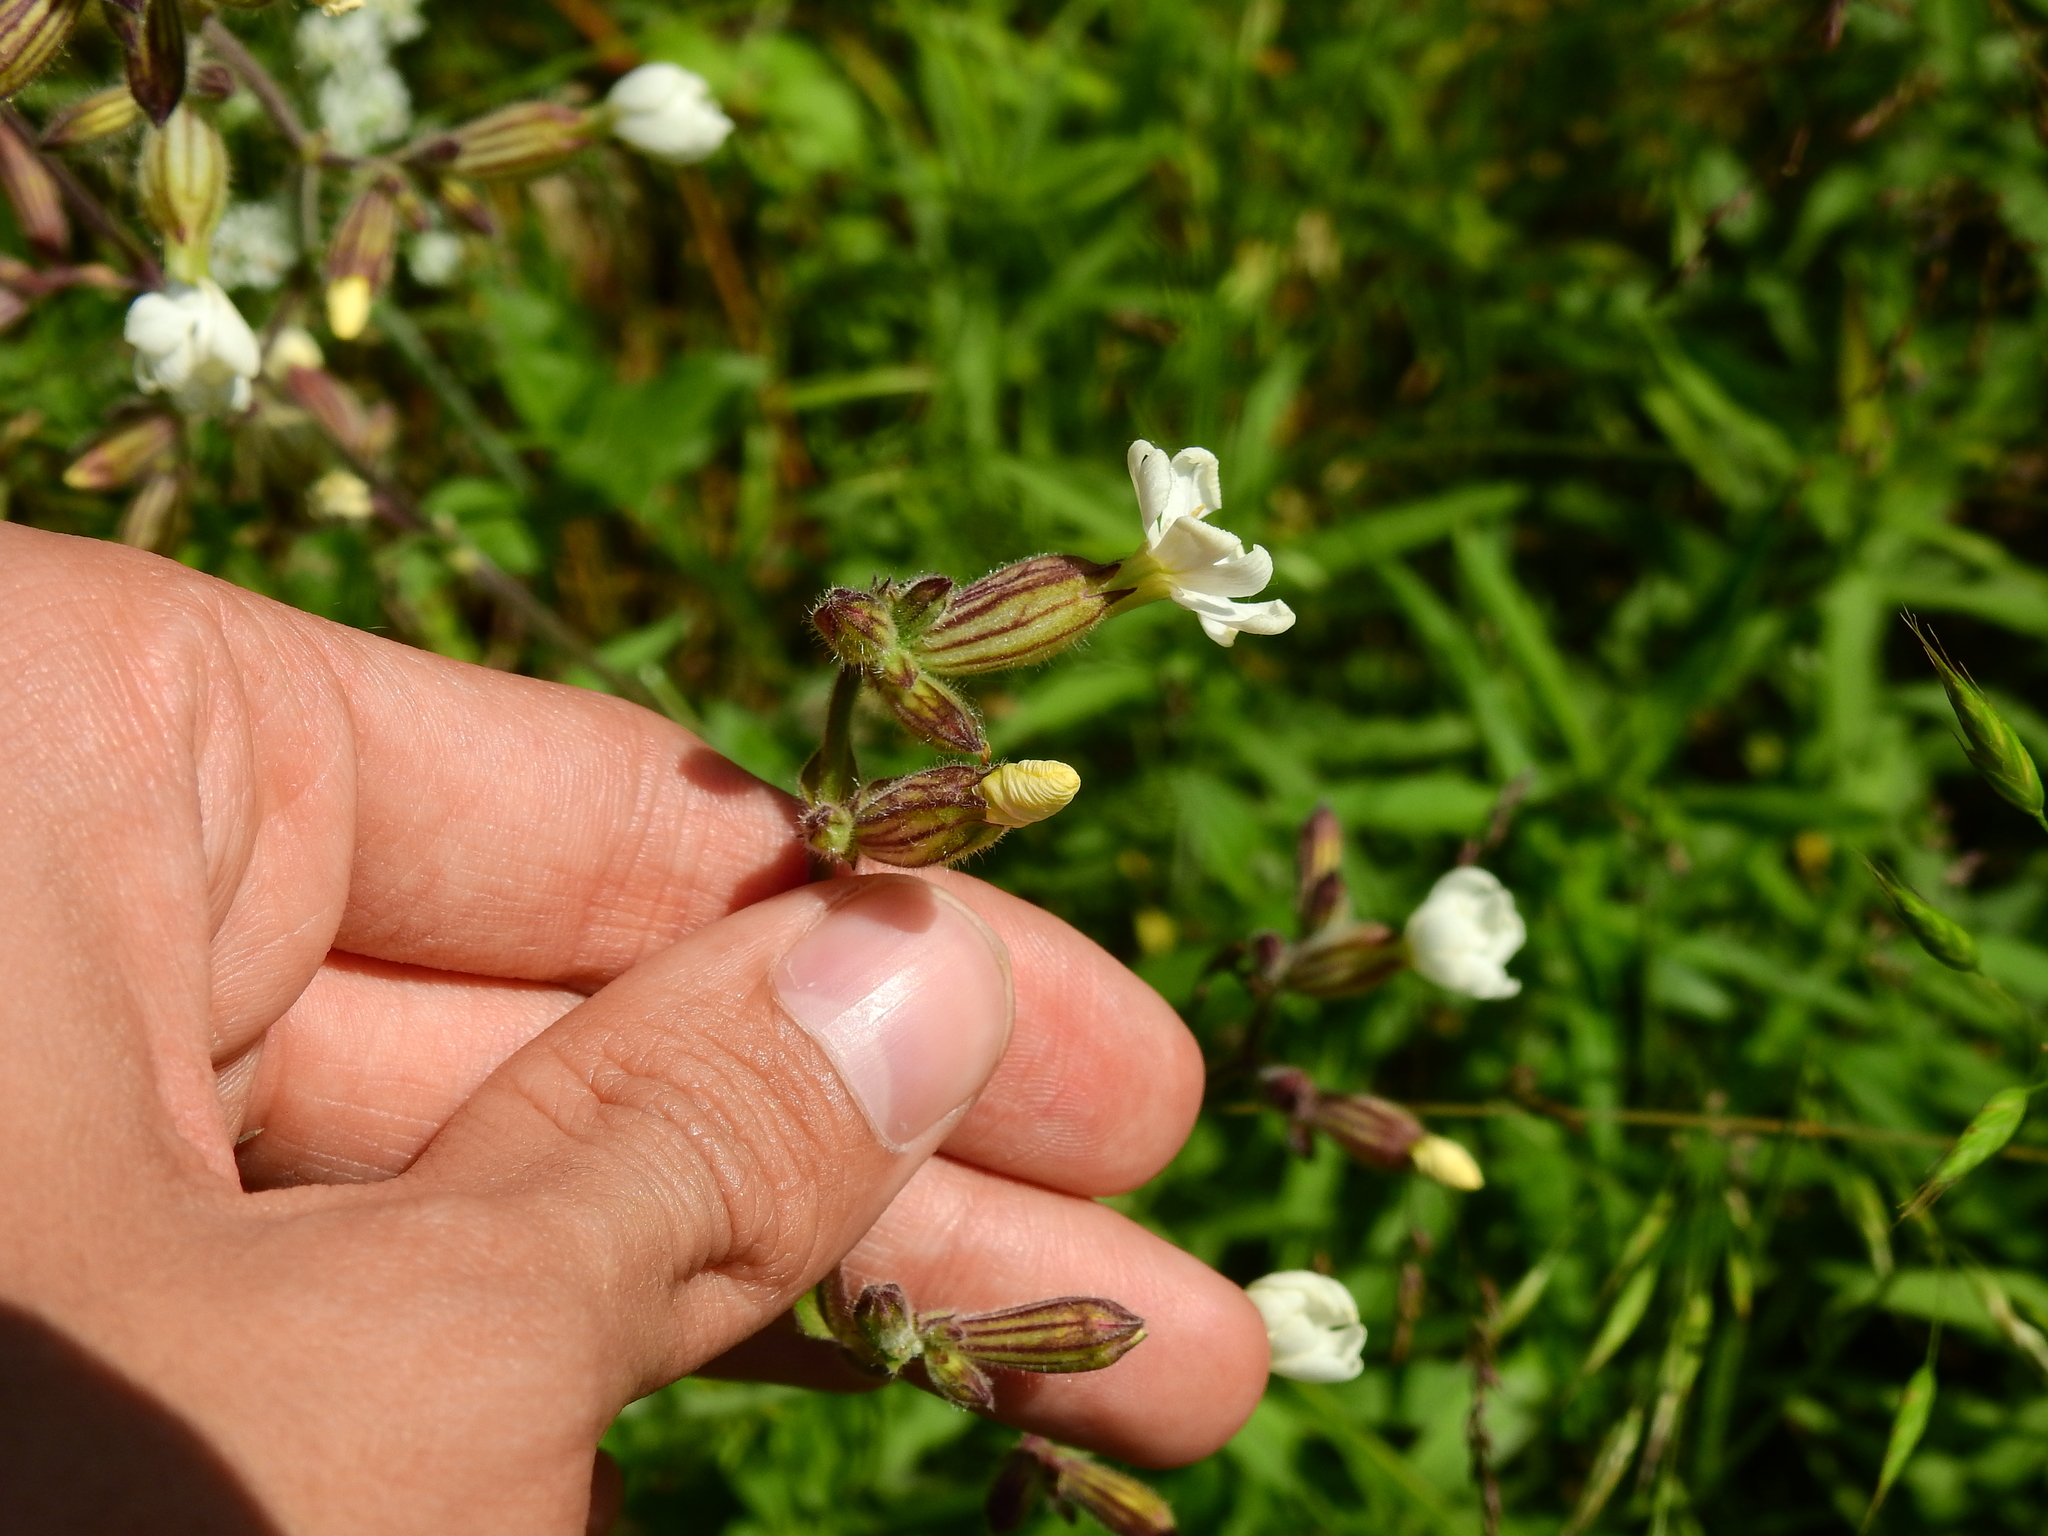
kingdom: Plantae
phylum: Tracheophyta
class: Magnoliopsida
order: Caryophyllales
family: Caryophyllaceae
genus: Silene
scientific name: Silene latifolia
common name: White campion
